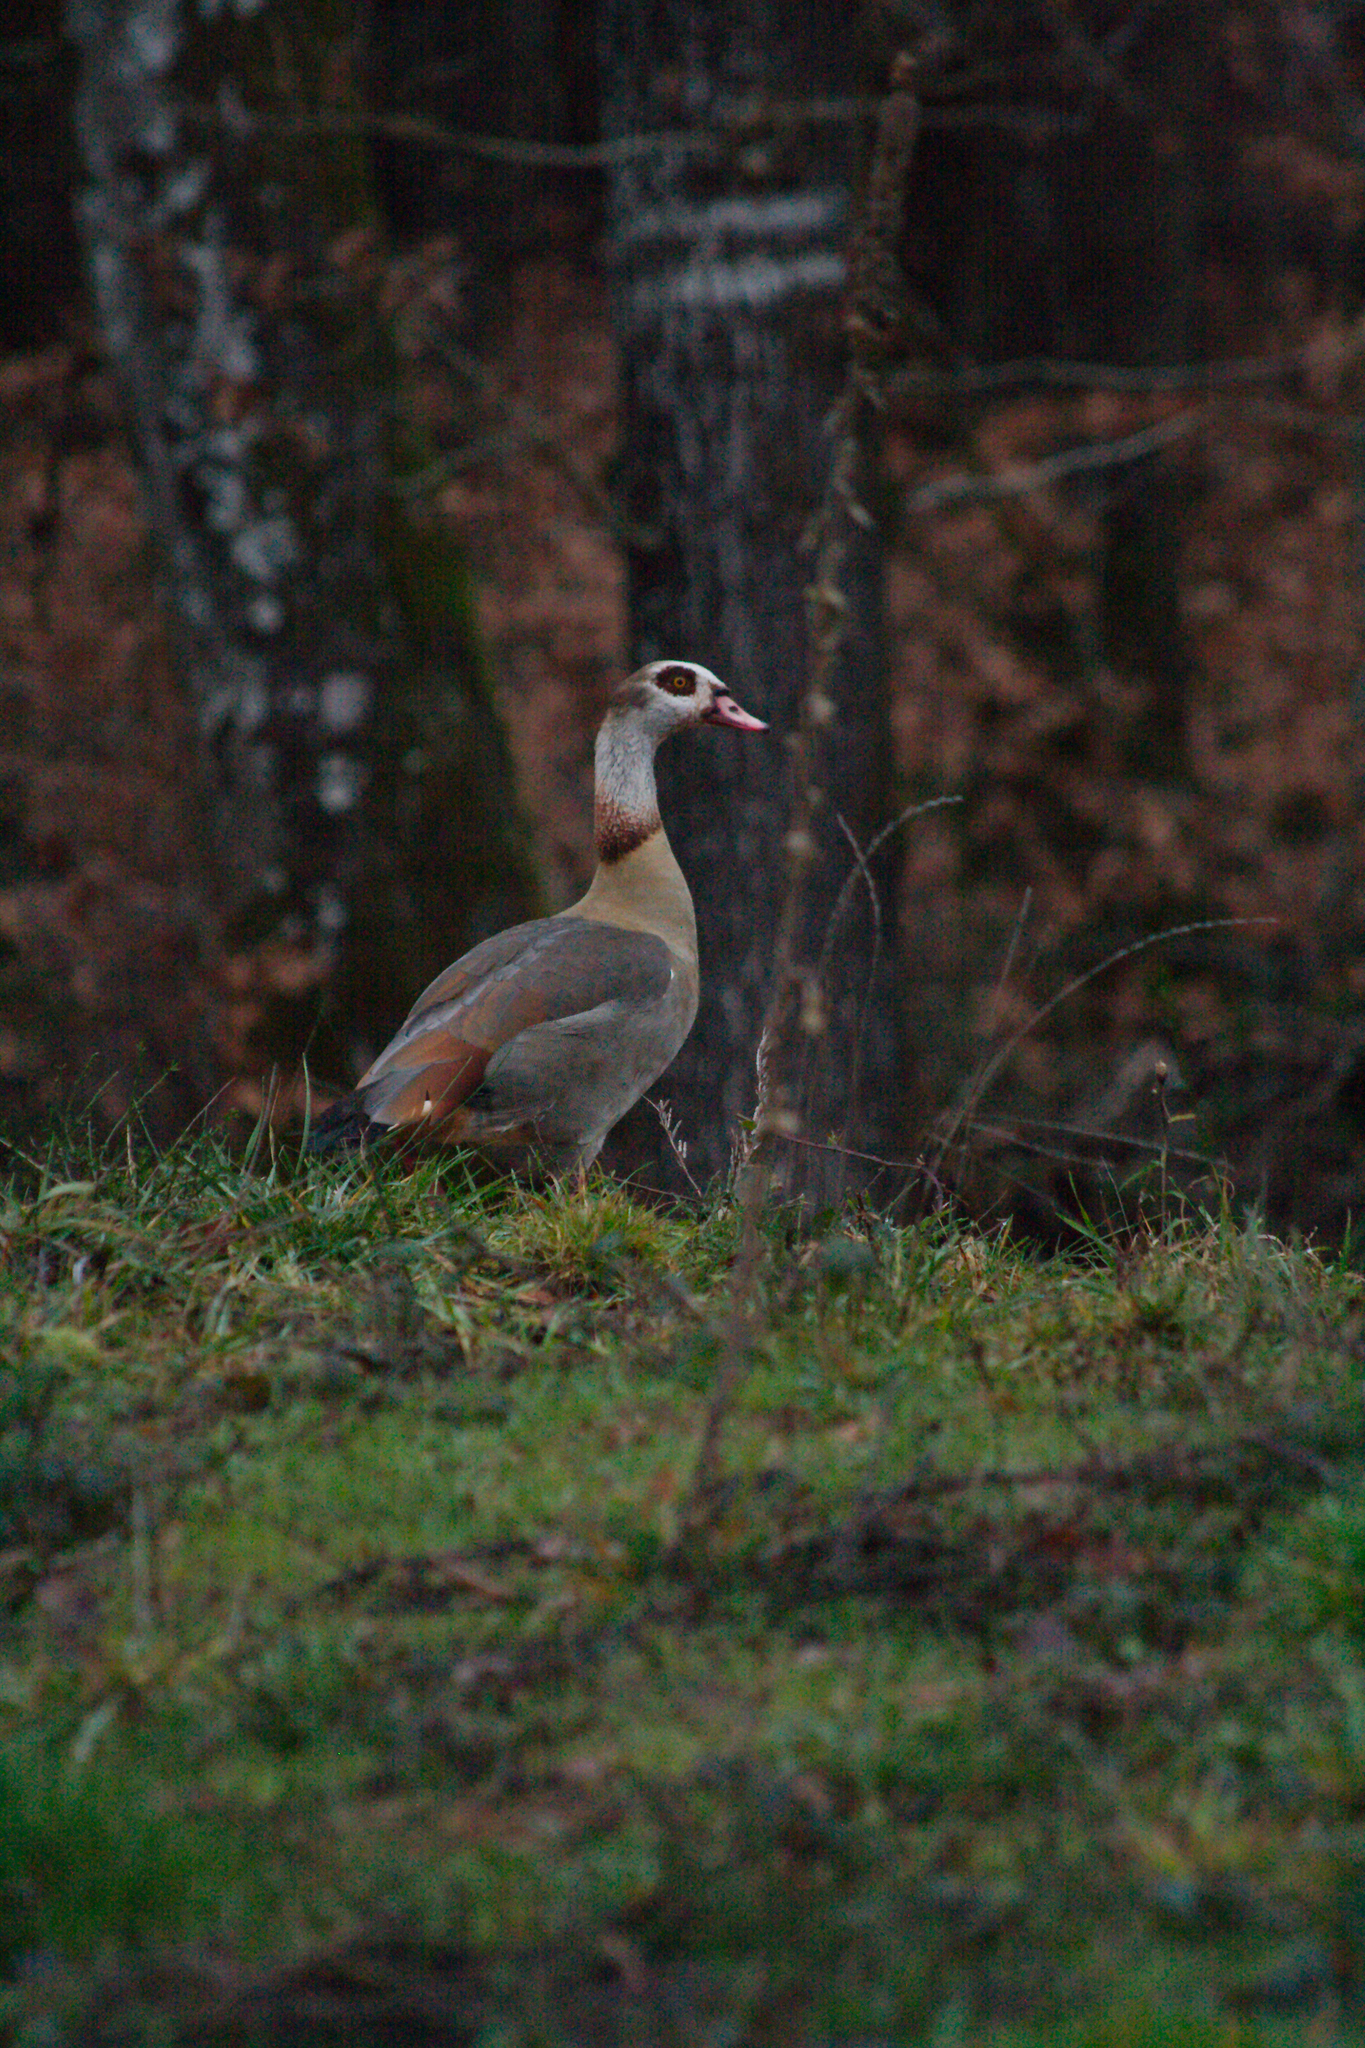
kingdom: Animalia
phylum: Chordata
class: Aves
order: Anseriformes
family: Anatidae
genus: Alopochen
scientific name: Alopochen aegyptiaca
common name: Egyptian goose
